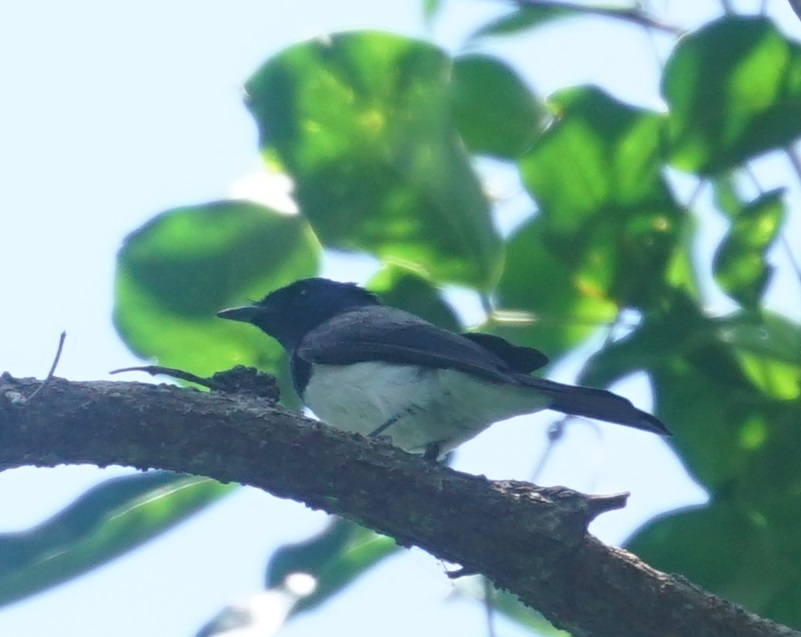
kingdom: Animalia
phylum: Chordata
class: Aves
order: Passeriformes
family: Monarchidae
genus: Myiagra
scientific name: Myiagra rubecula
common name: Leaden flycatcher
